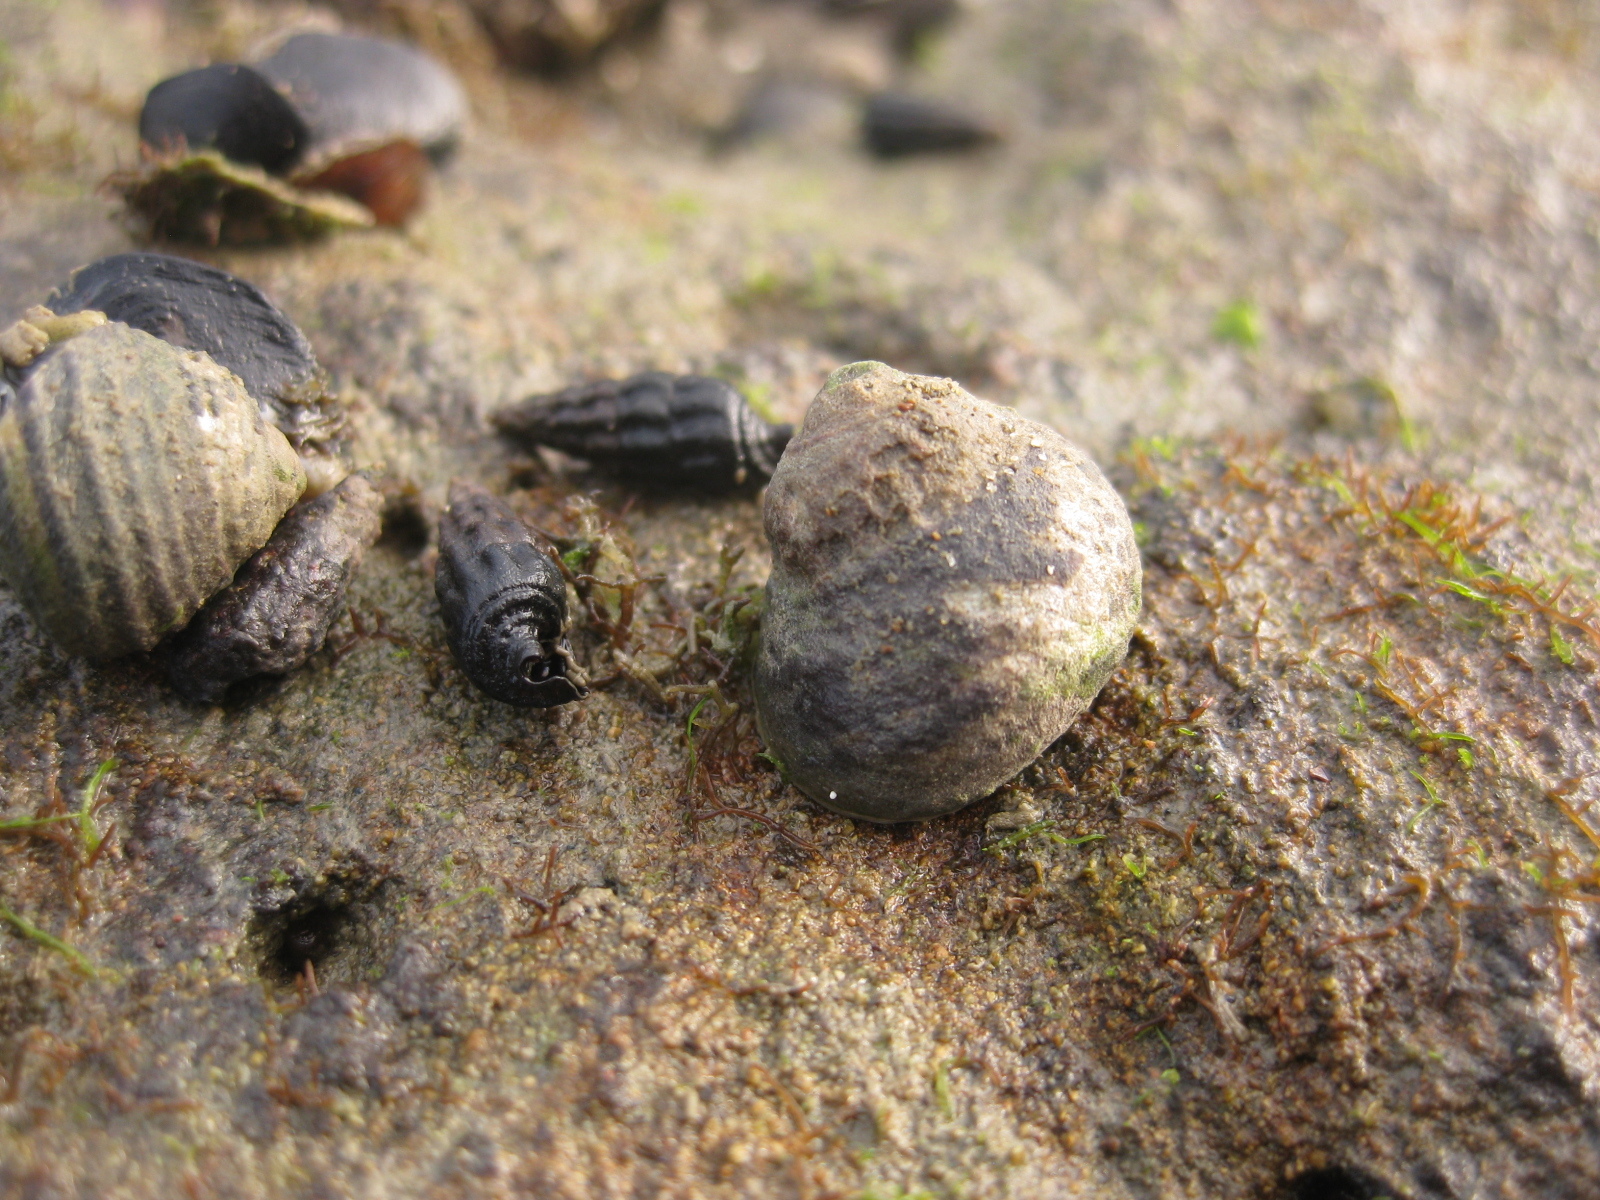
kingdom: Animalia
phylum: Mollusca
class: Gastropoda
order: Trochida
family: Trochidae
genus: Diloma
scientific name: Diloma subrostratum
